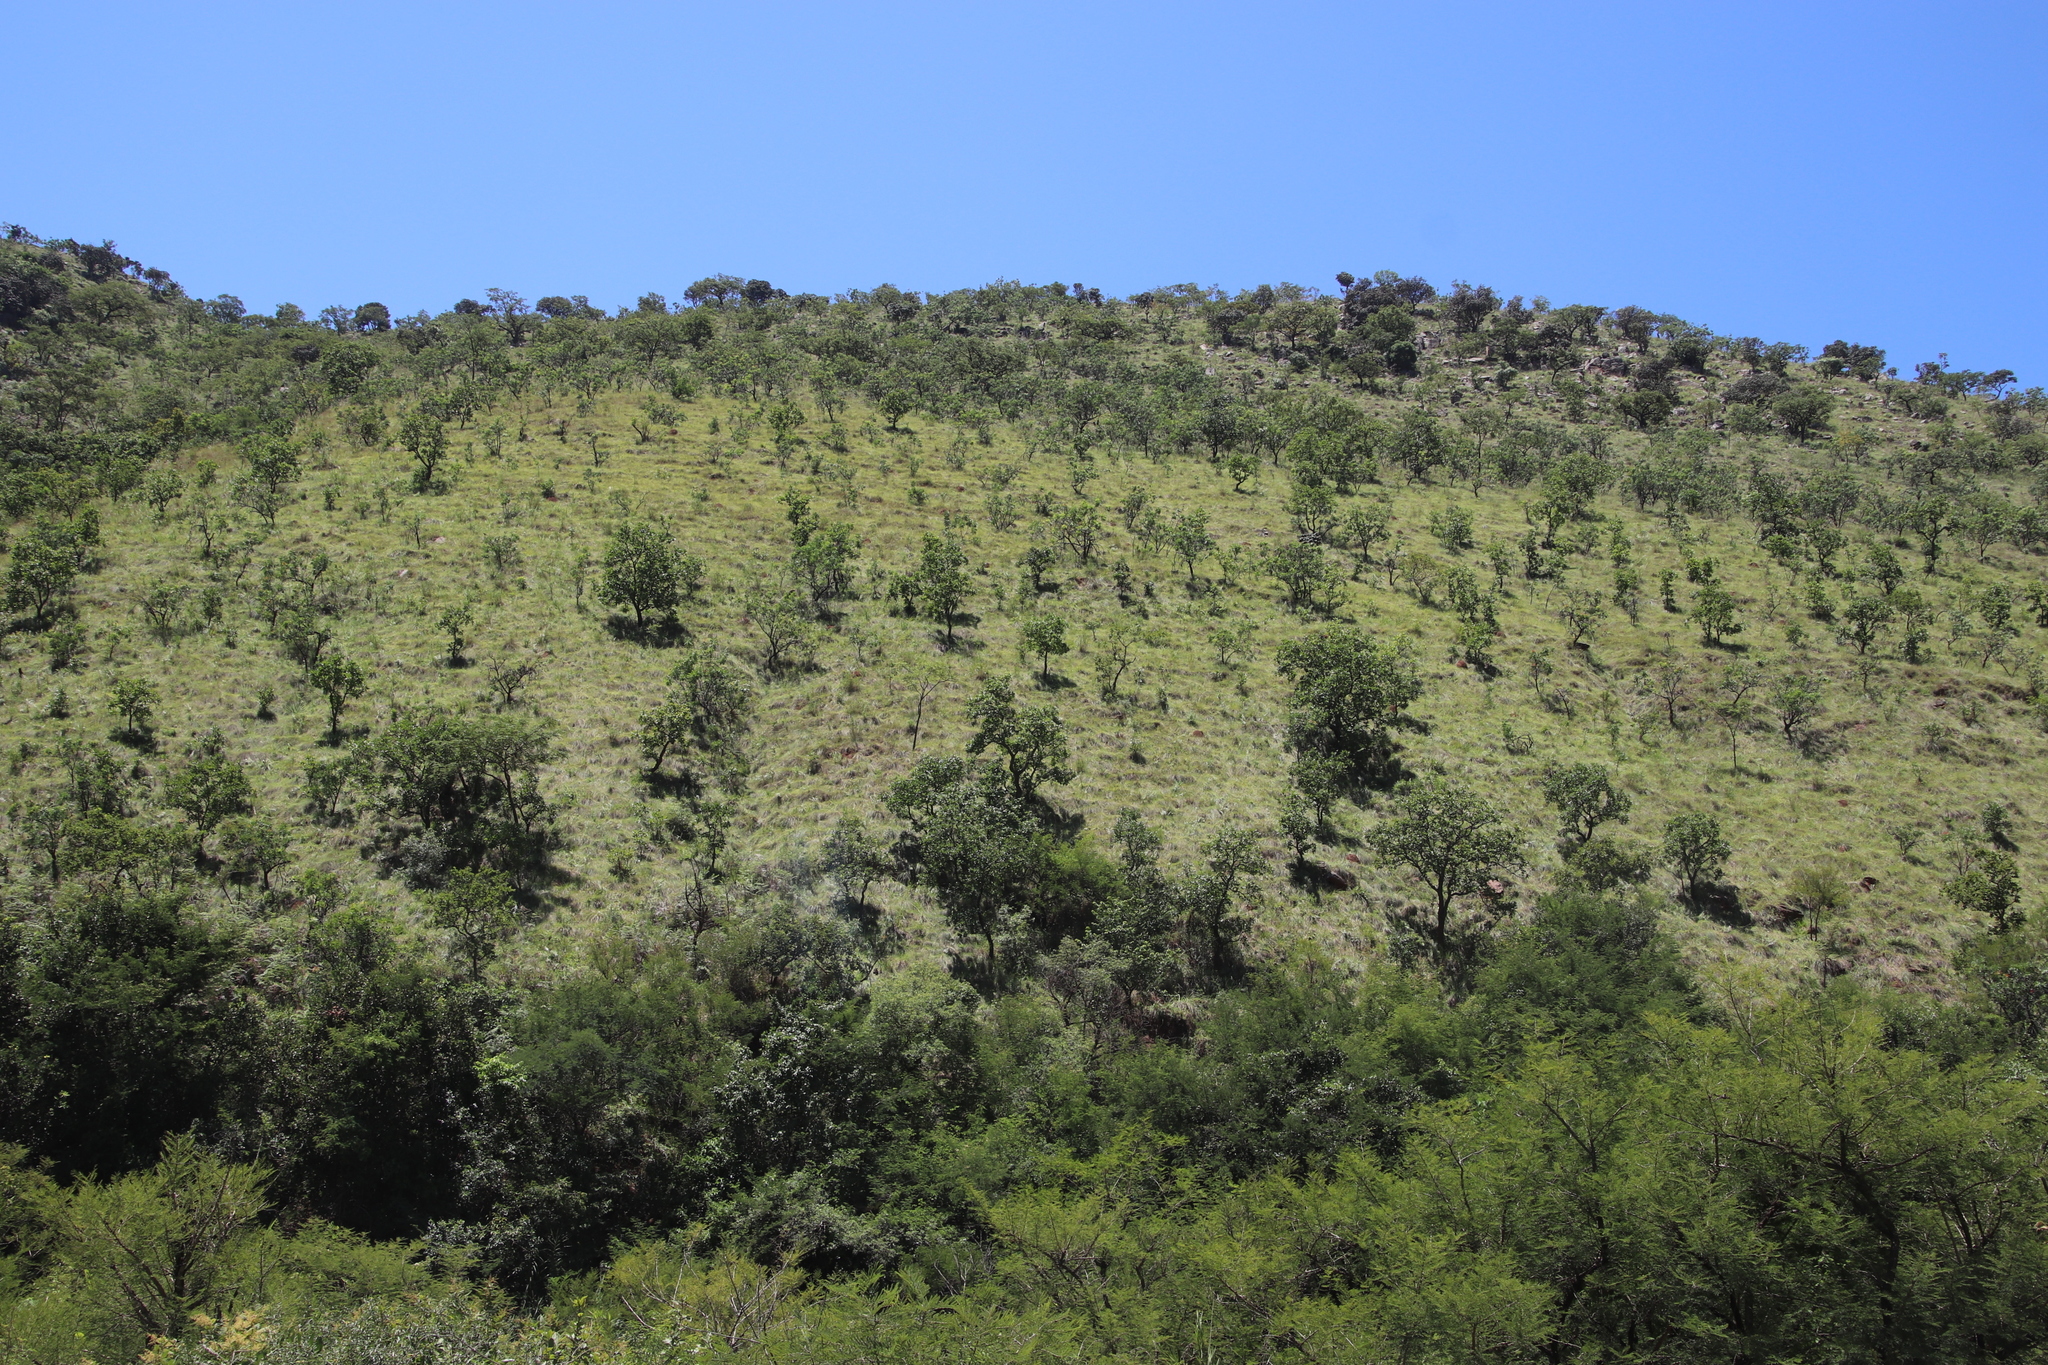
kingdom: Plantae
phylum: Tracheophyta
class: Magnoliopsida
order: Proteales
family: Proteaceae
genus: Protea
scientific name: Protea caffra
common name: Common sugarbush
